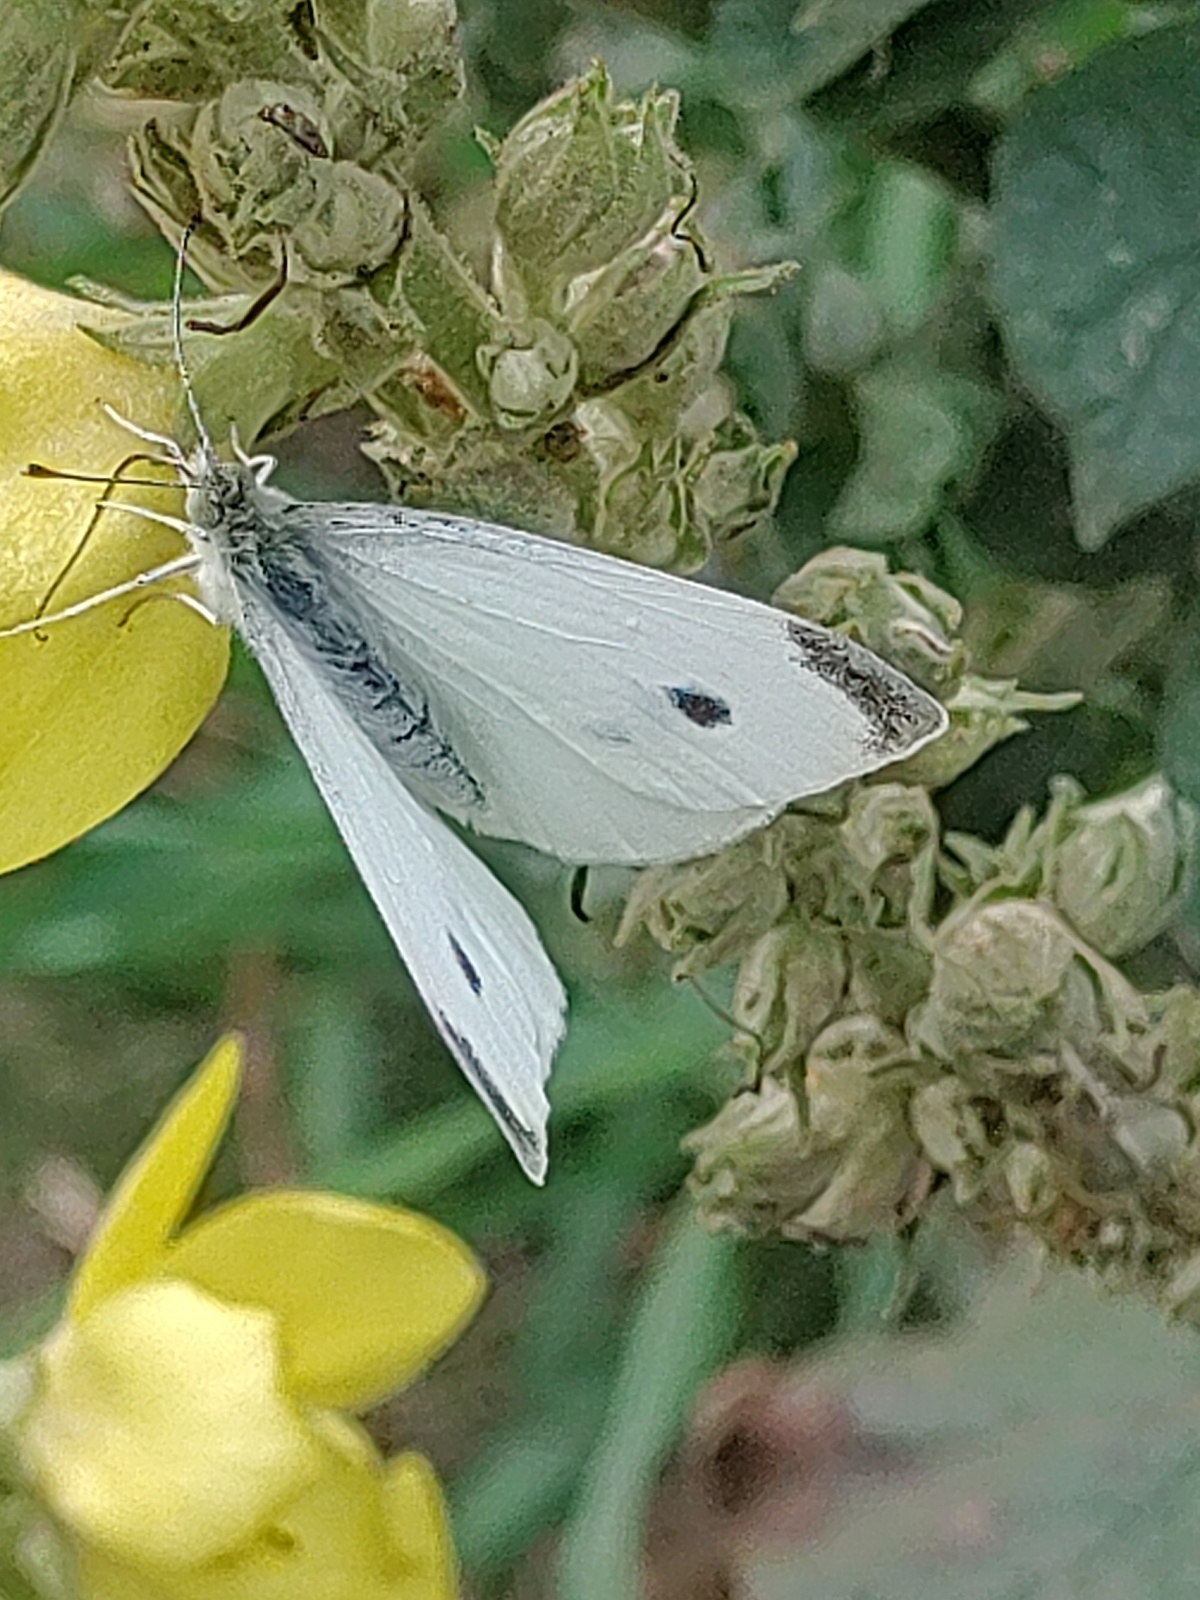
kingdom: Animalia
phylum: Arthropoda
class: Insecta
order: Lepidoptera
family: Pieridae
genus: Pieris
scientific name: Pieris rapae
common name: Small white
